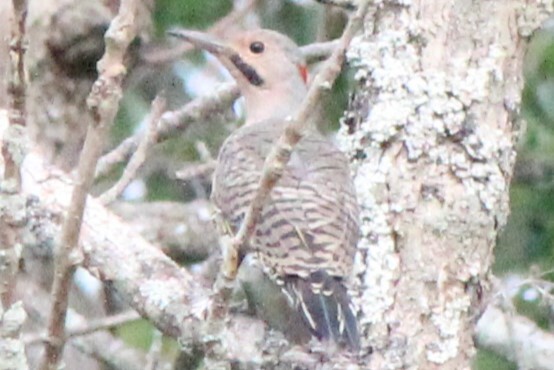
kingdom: Animalia
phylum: Chordata
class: Aves
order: Piciformes
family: Picidae
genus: Colaptes
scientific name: Colaptes auratus
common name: Northern flicker
